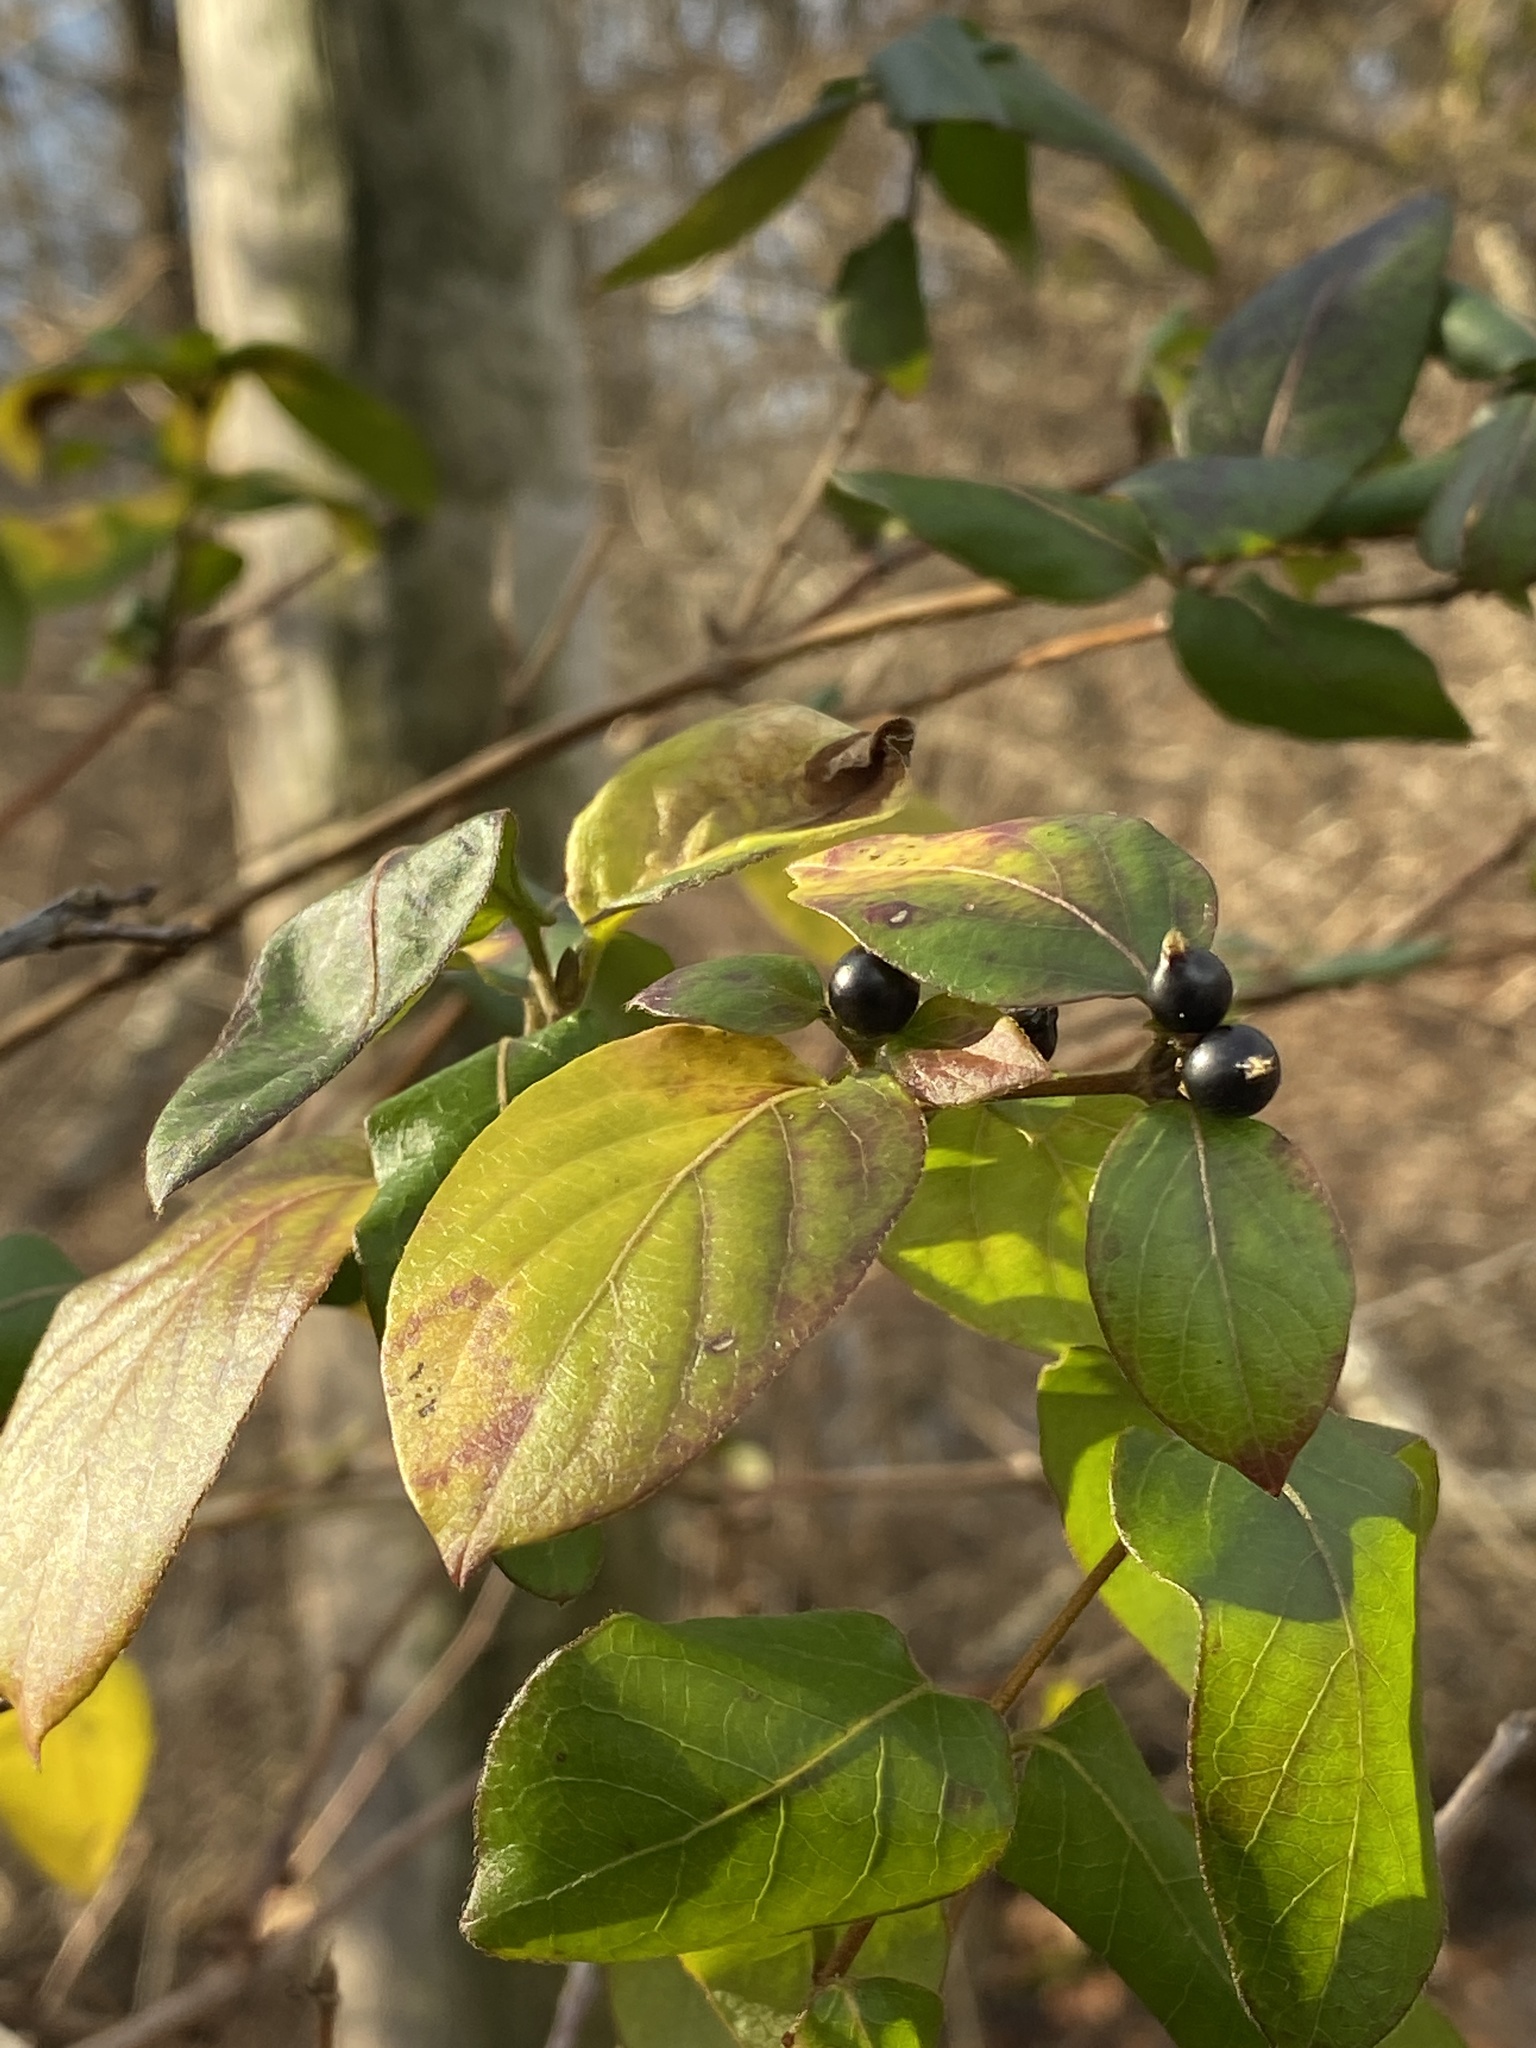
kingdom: Plantae
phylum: Tracheophyta
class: Magnoliopsida
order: Dipsacales
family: Caprifoliaceae
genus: Lonicera
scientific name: Lonicera japonica
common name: Japanese honeysuckle
